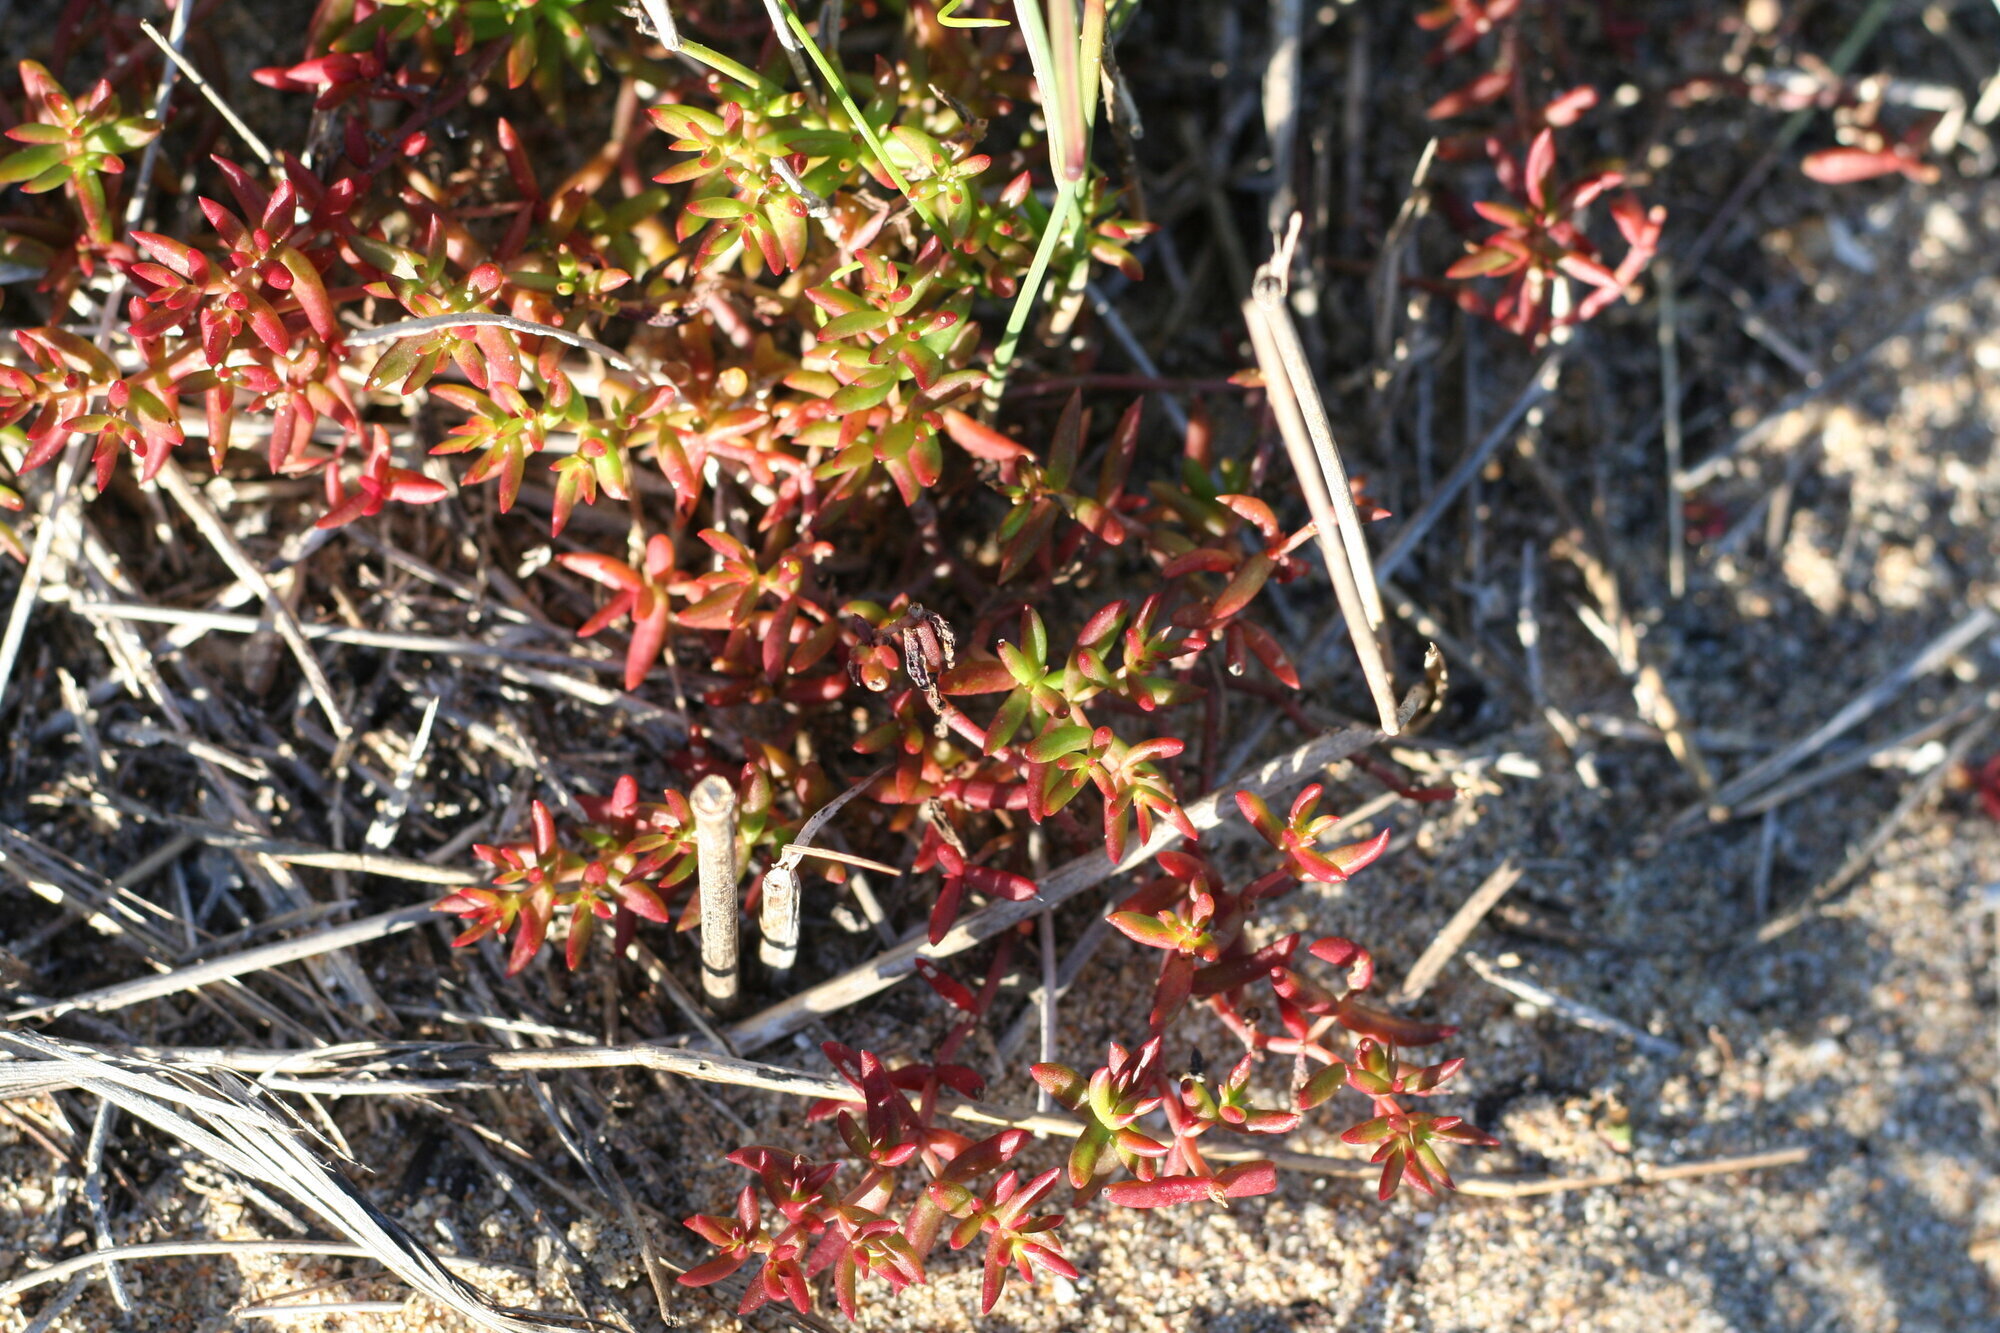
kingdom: Plantae
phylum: Tracheophyta
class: Magnoliopsida
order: Saxifragales
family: Crassulaceae
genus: Crassula
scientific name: Crassula expansa
